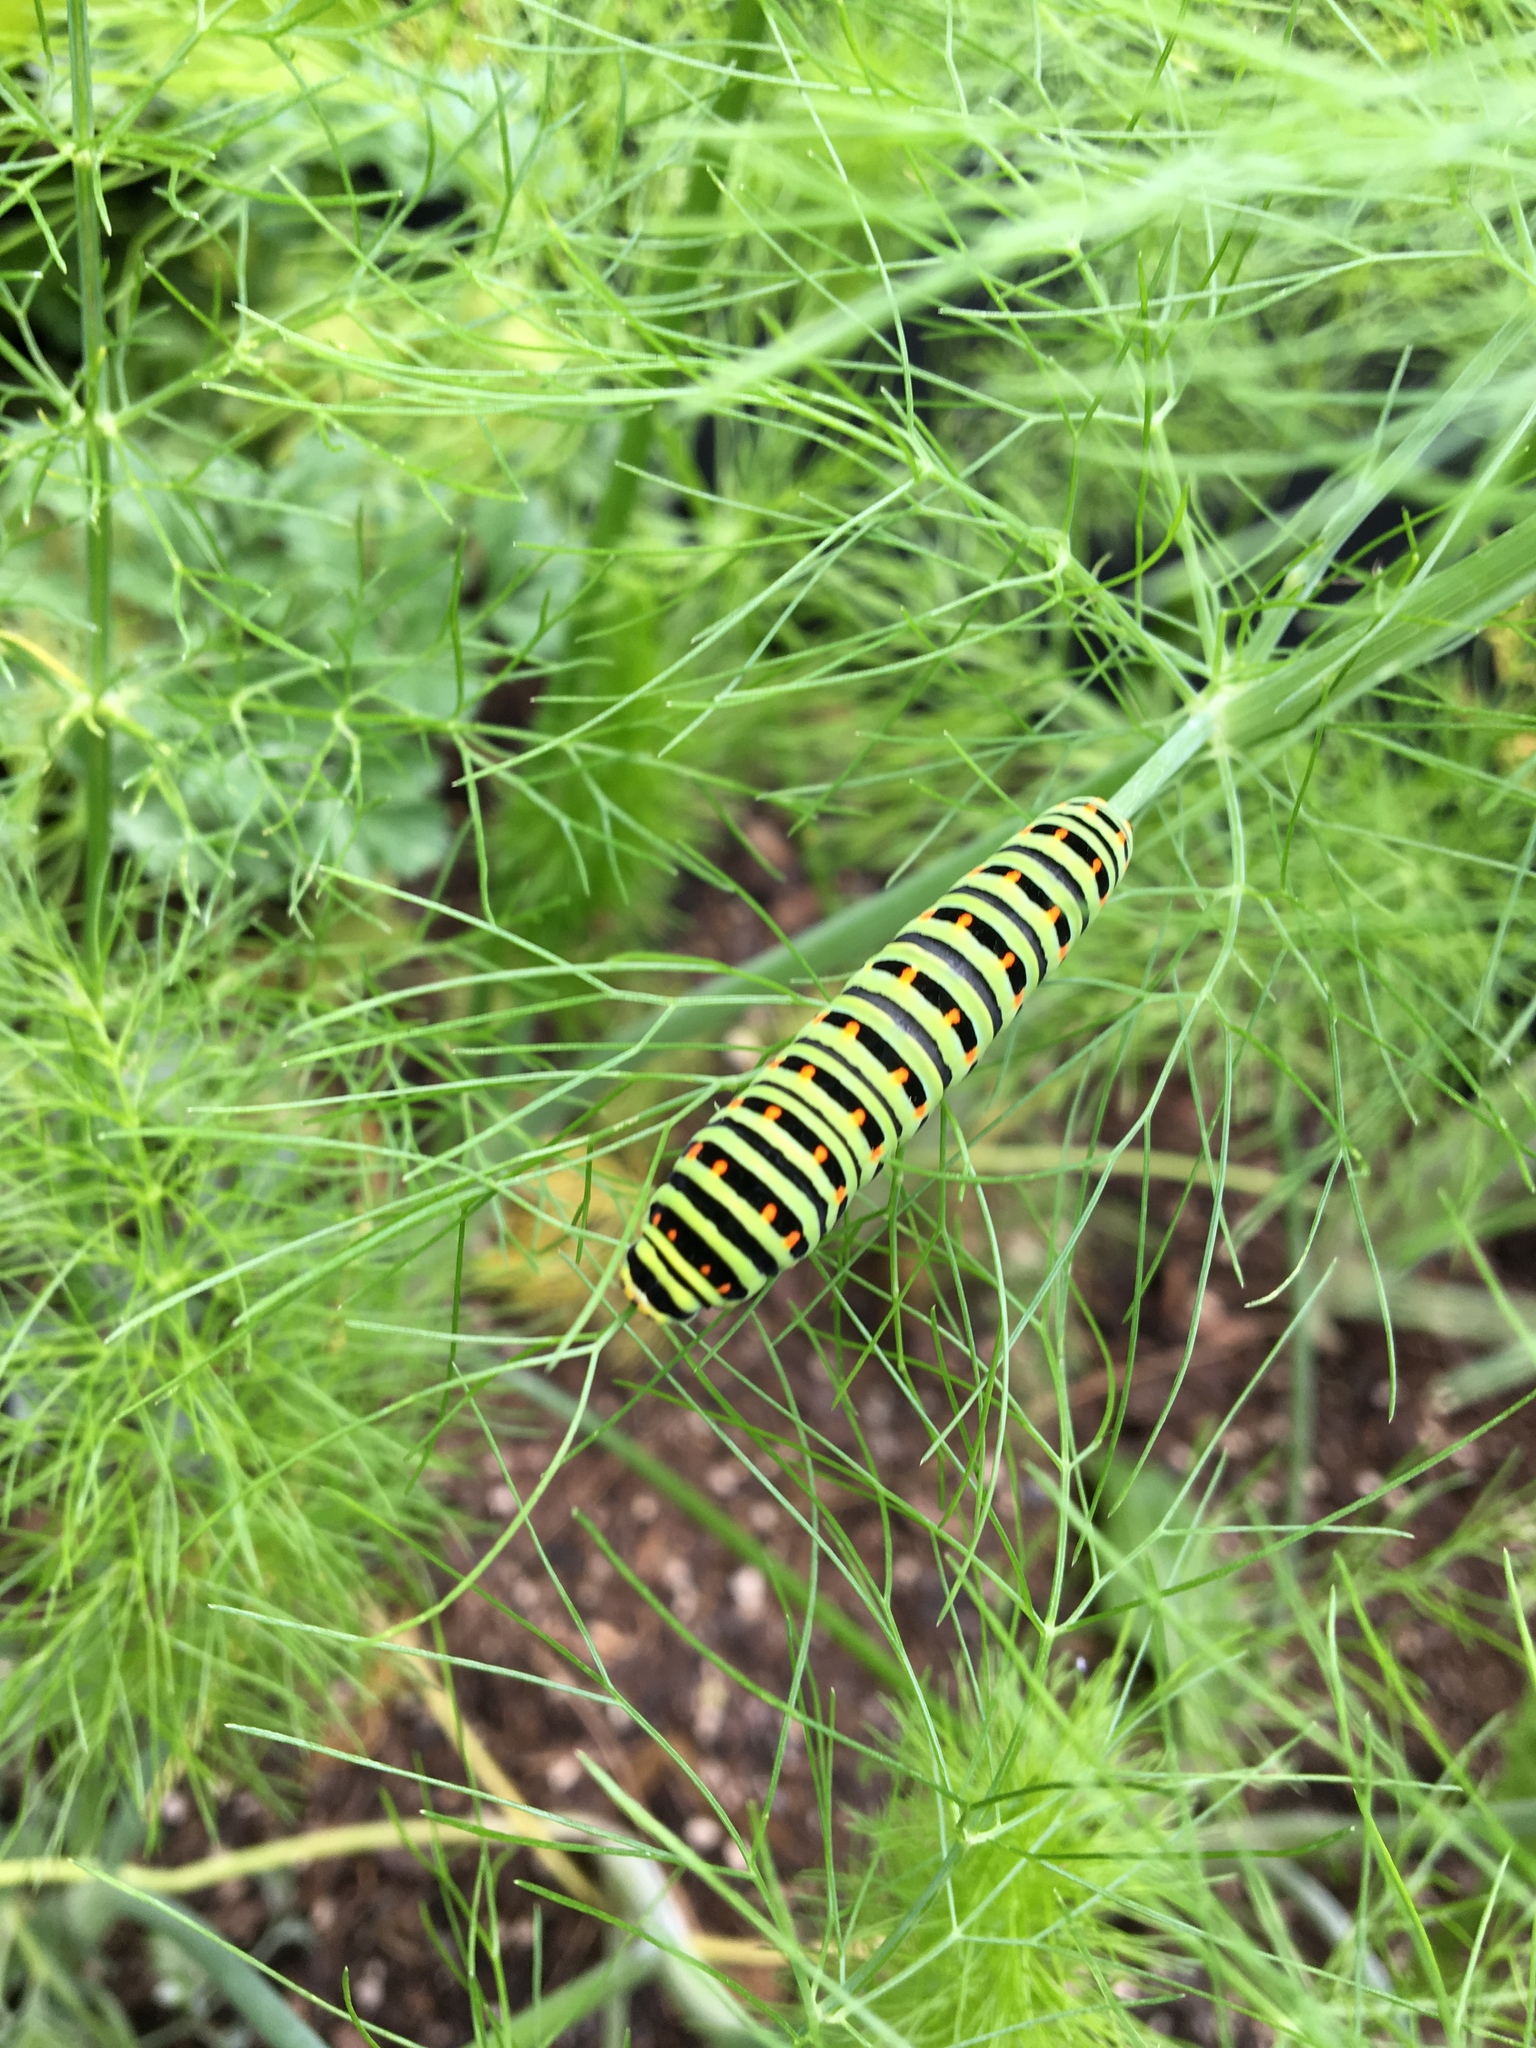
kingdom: Animalia
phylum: Arthropoda
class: Insecta
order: Lepidoptera
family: Papilionidae
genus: Papilio
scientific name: Papilio machaon
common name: Swallowtail
